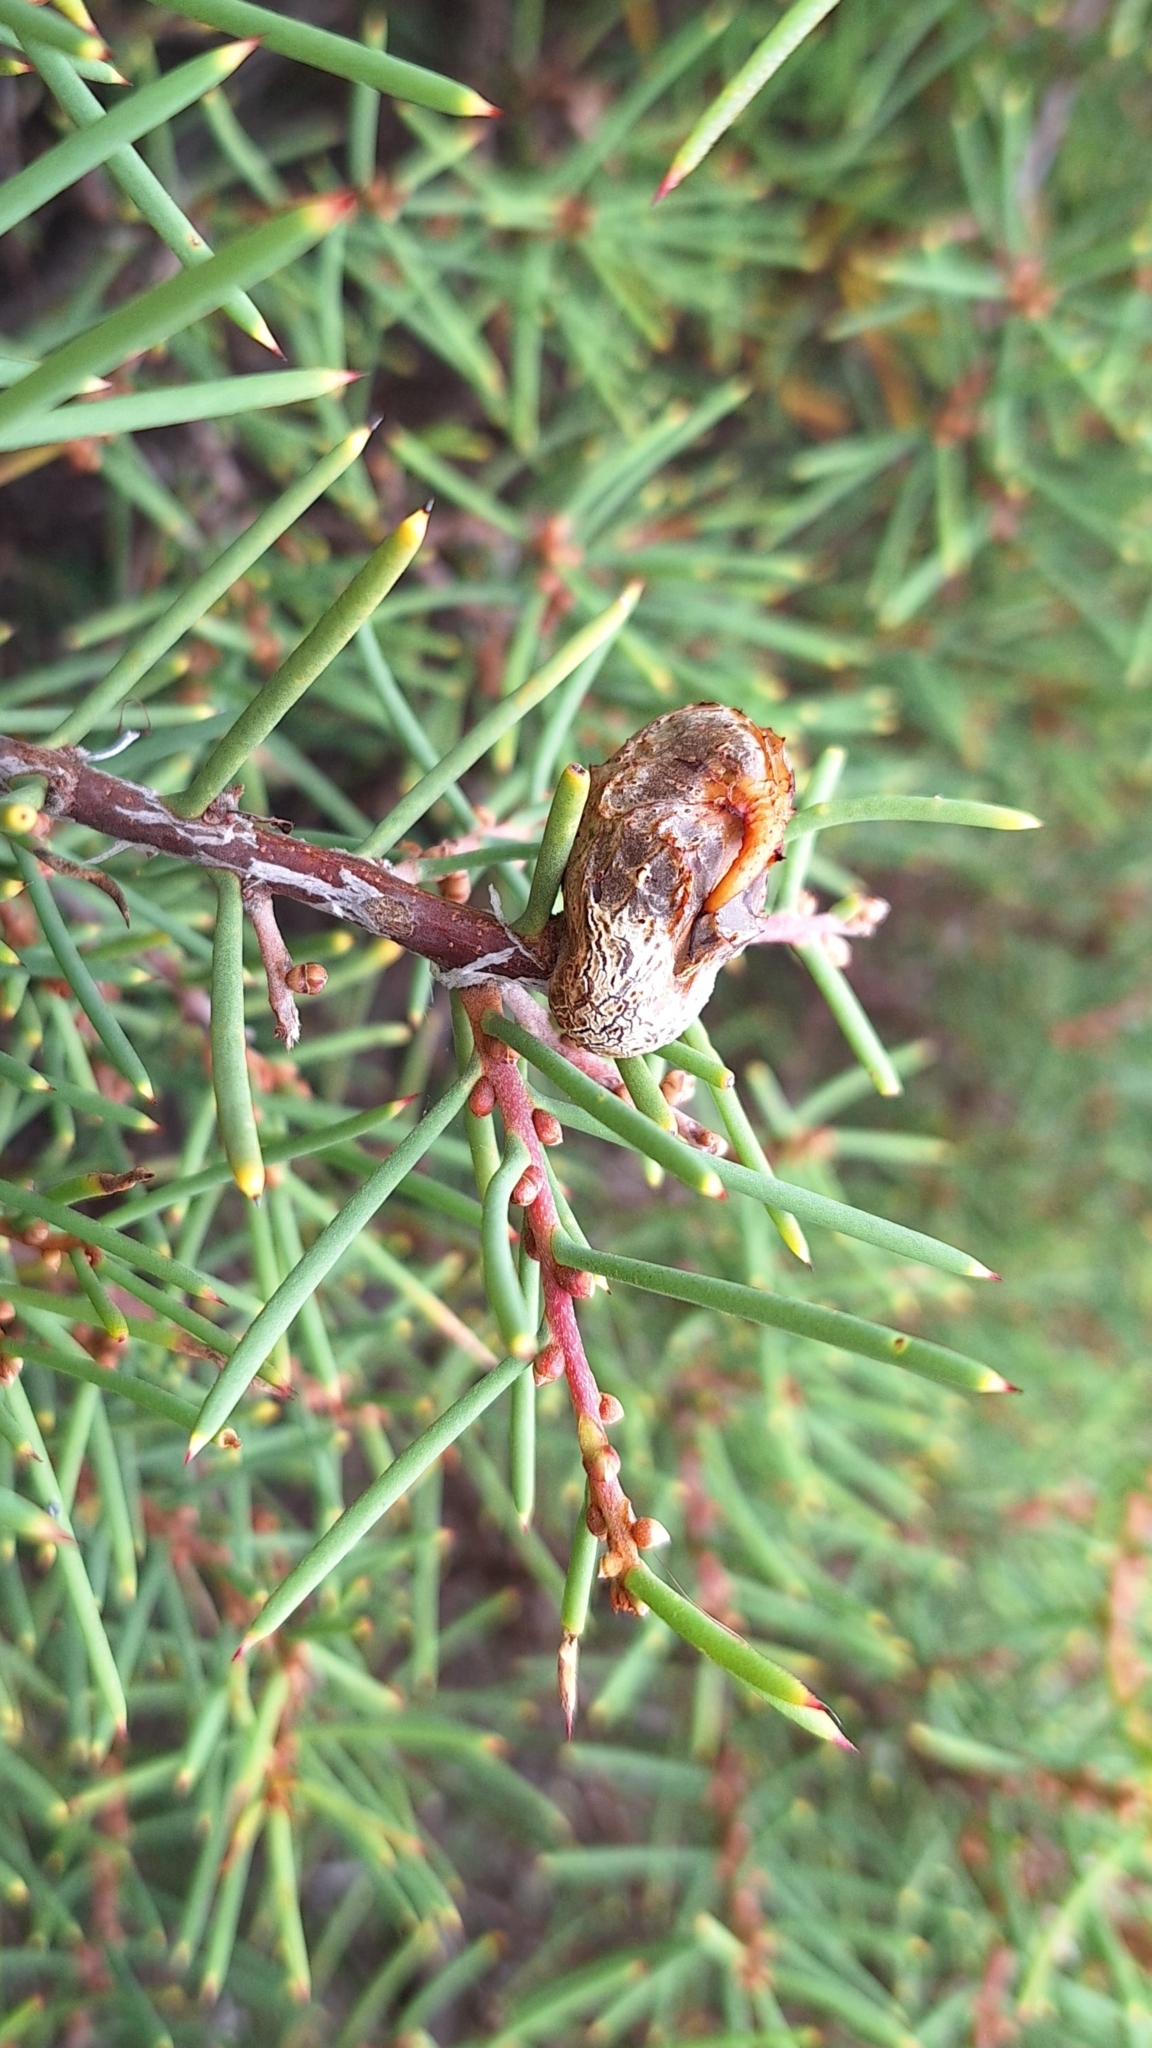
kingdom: Plantae
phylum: Tracheophyta
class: Magnoliopsida
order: Proteales
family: Proteaceae
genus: Hakea
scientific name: Hakea rugosa
